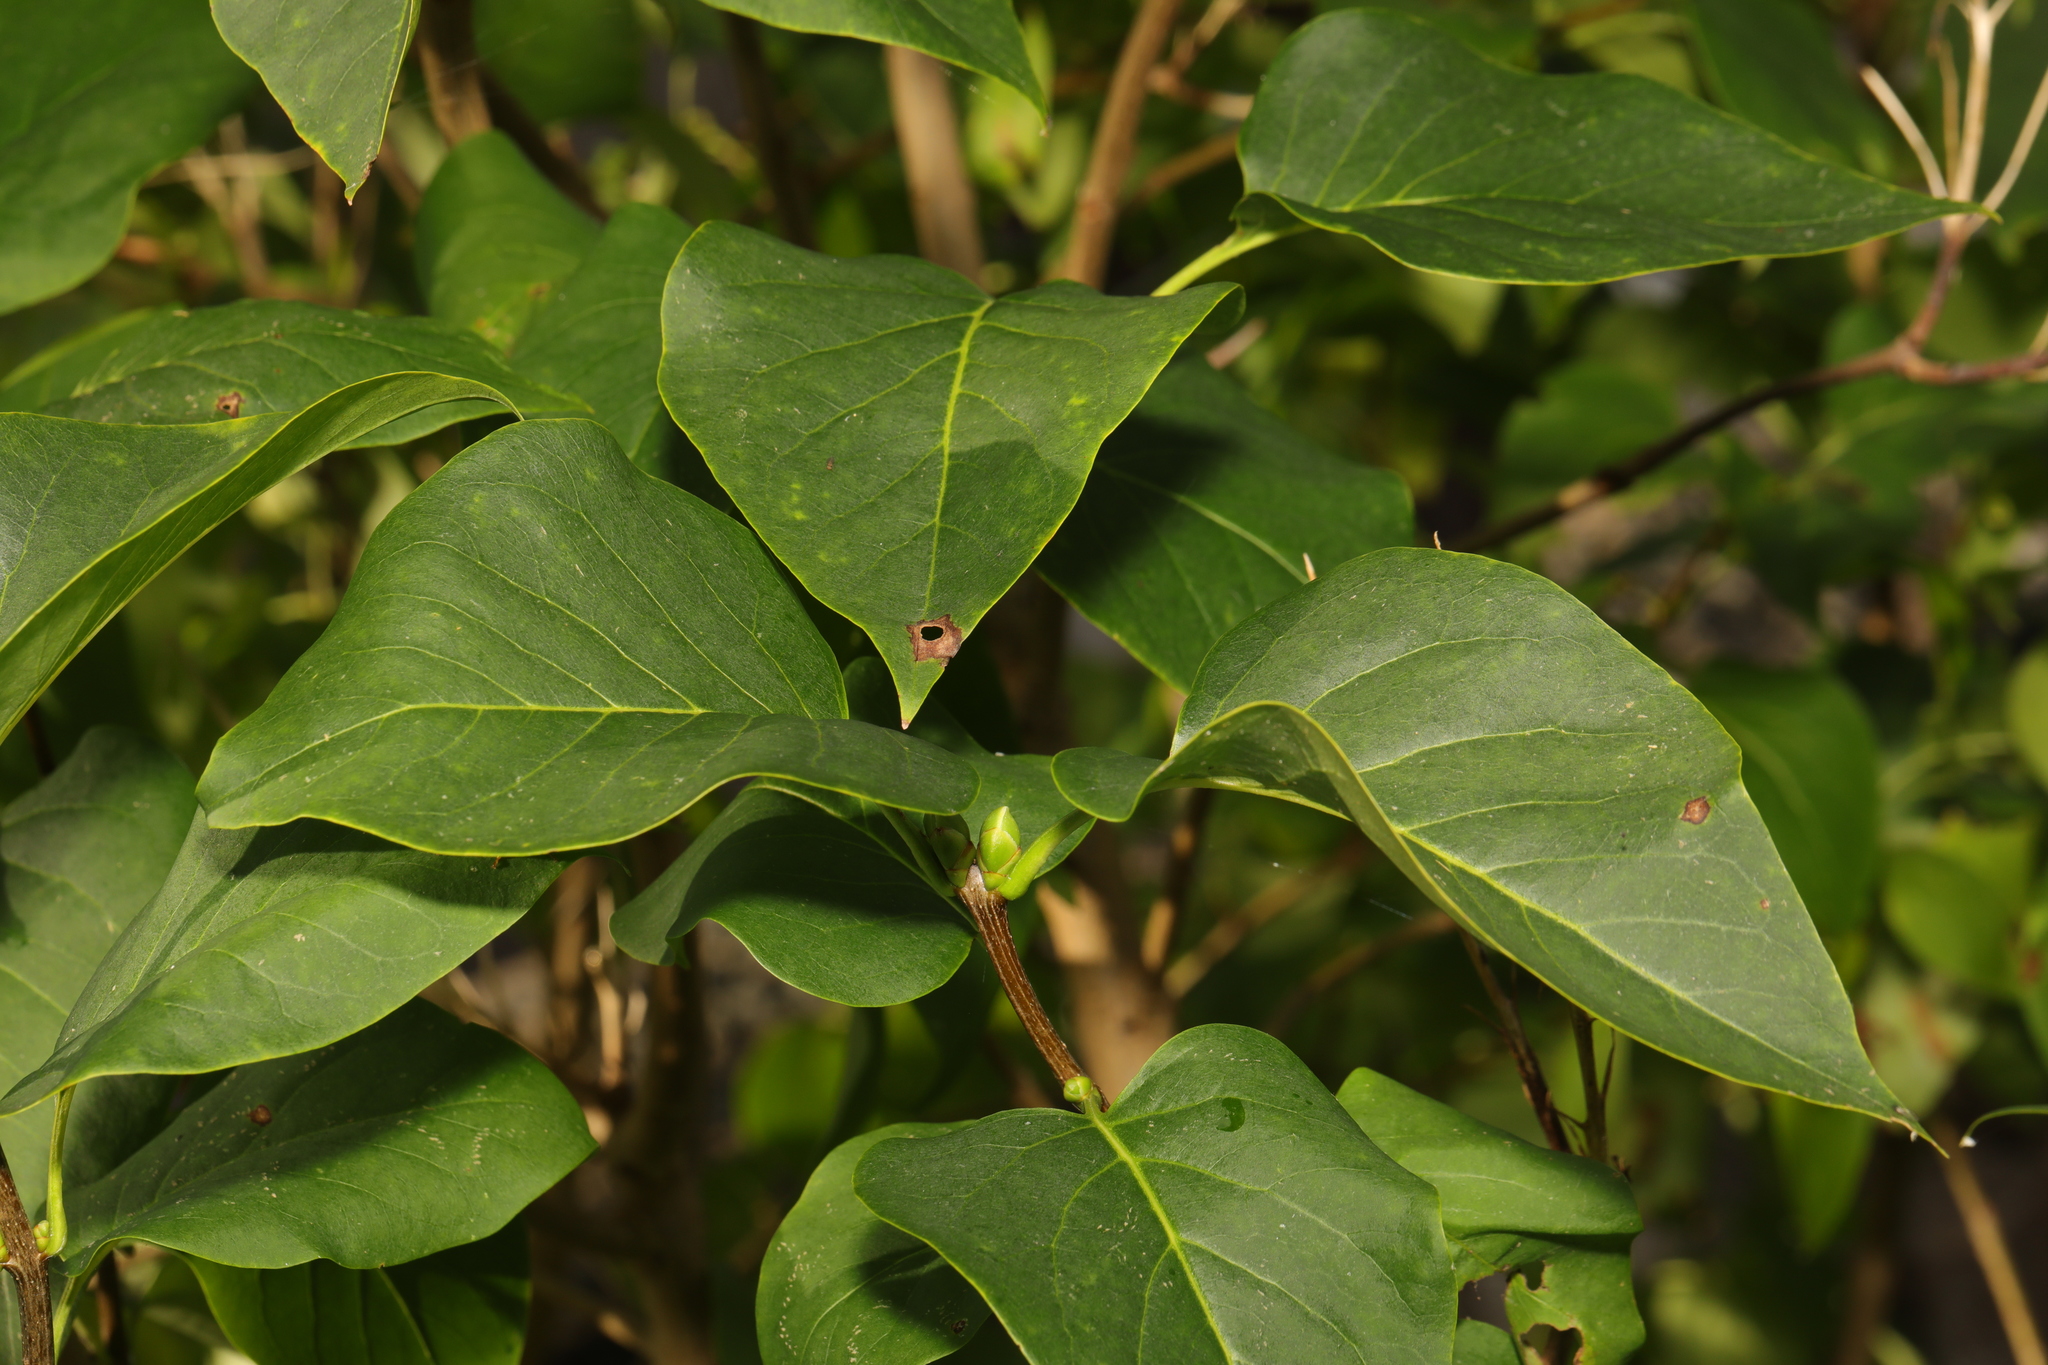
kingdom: Plantae
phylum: Tracheophyta
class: Magnoliopsida
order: Lamiales
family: Oleaceae
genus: Syringa
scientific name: Syringa vulgaris
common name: Common lilac
